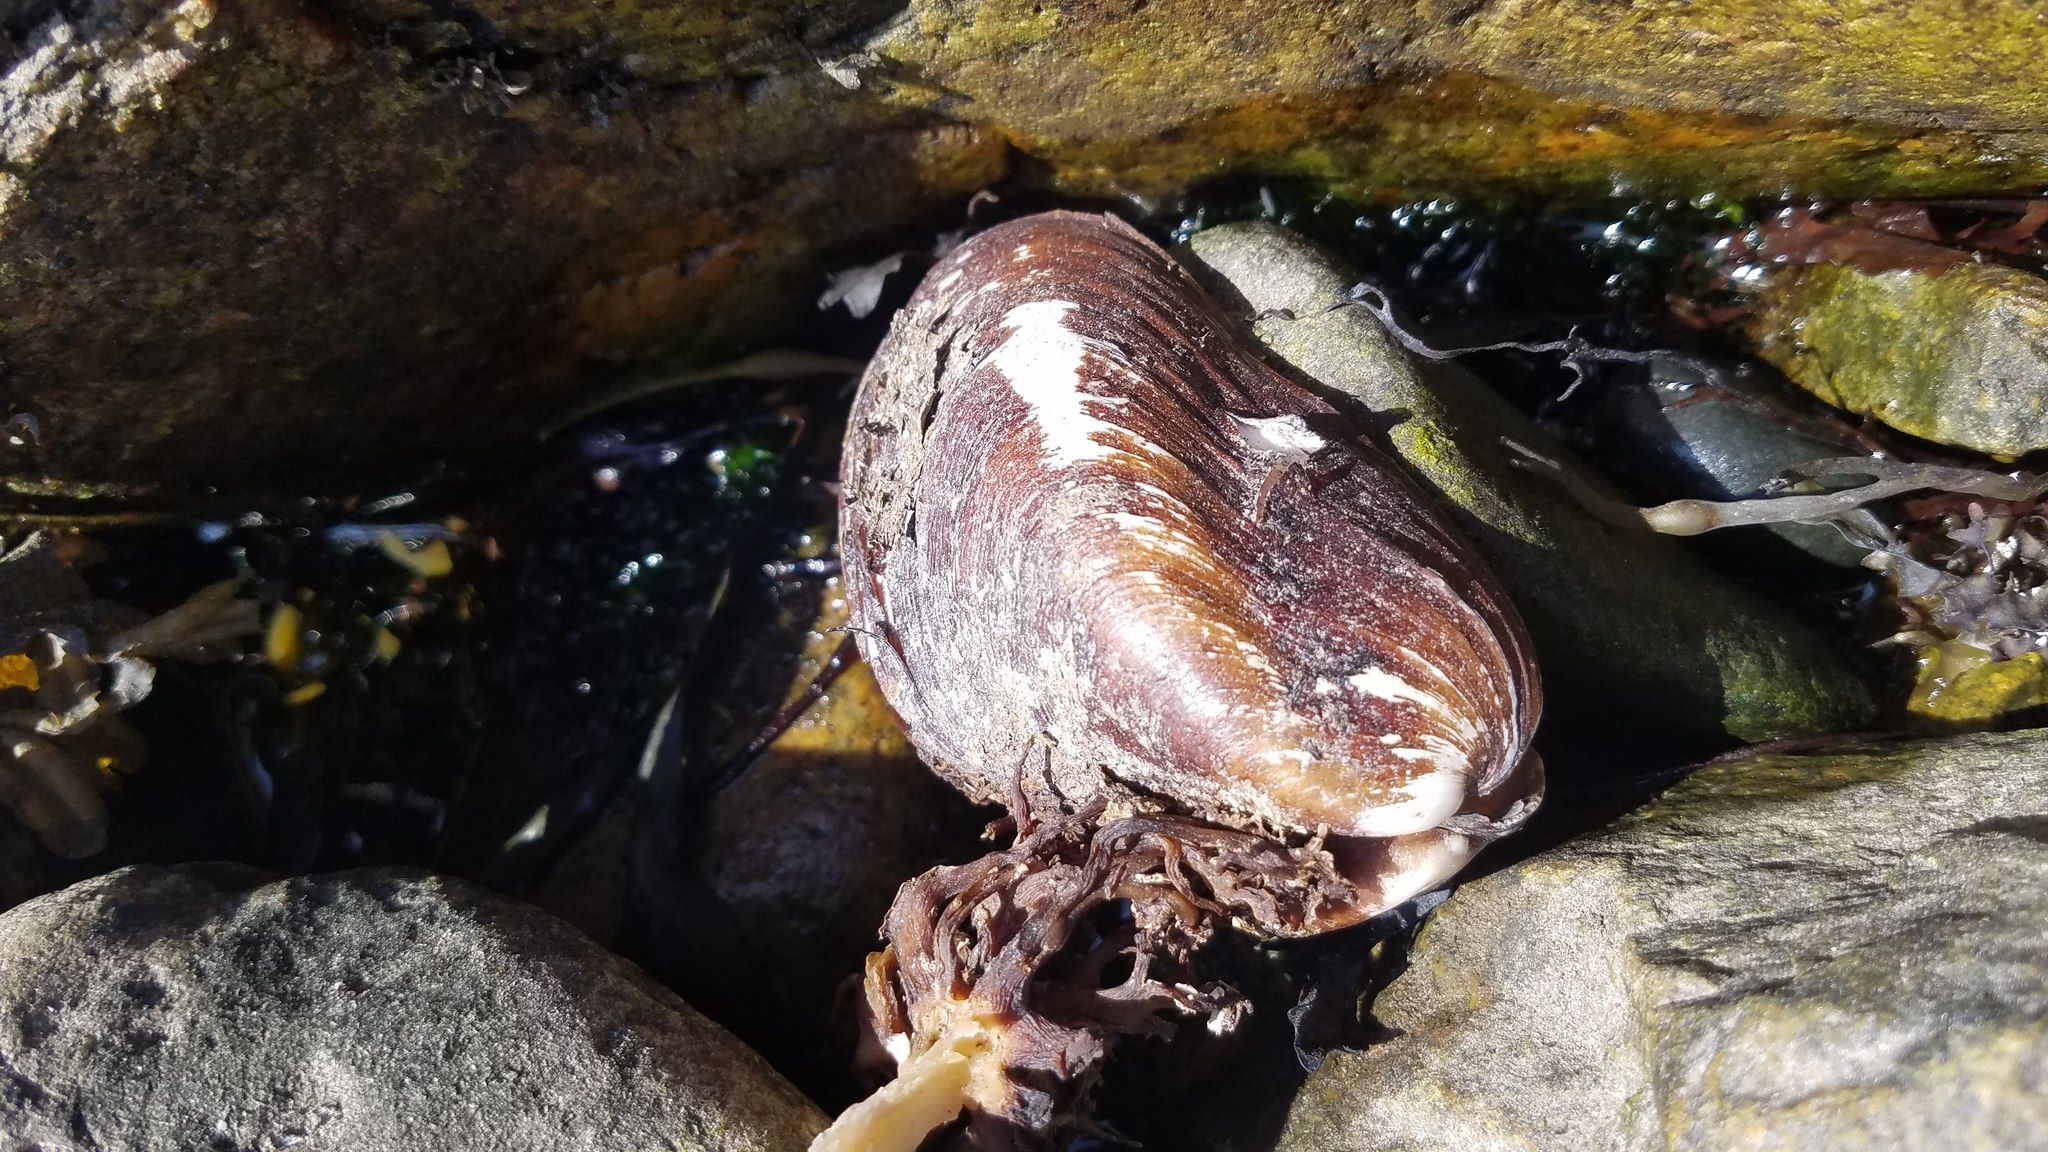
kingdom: Animalia
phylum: Mollusca
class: Bivalvia
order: Mytilida
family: Mytilidae
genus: Modiolus
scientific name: Modiolus modiolus
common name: Horse-mussel
